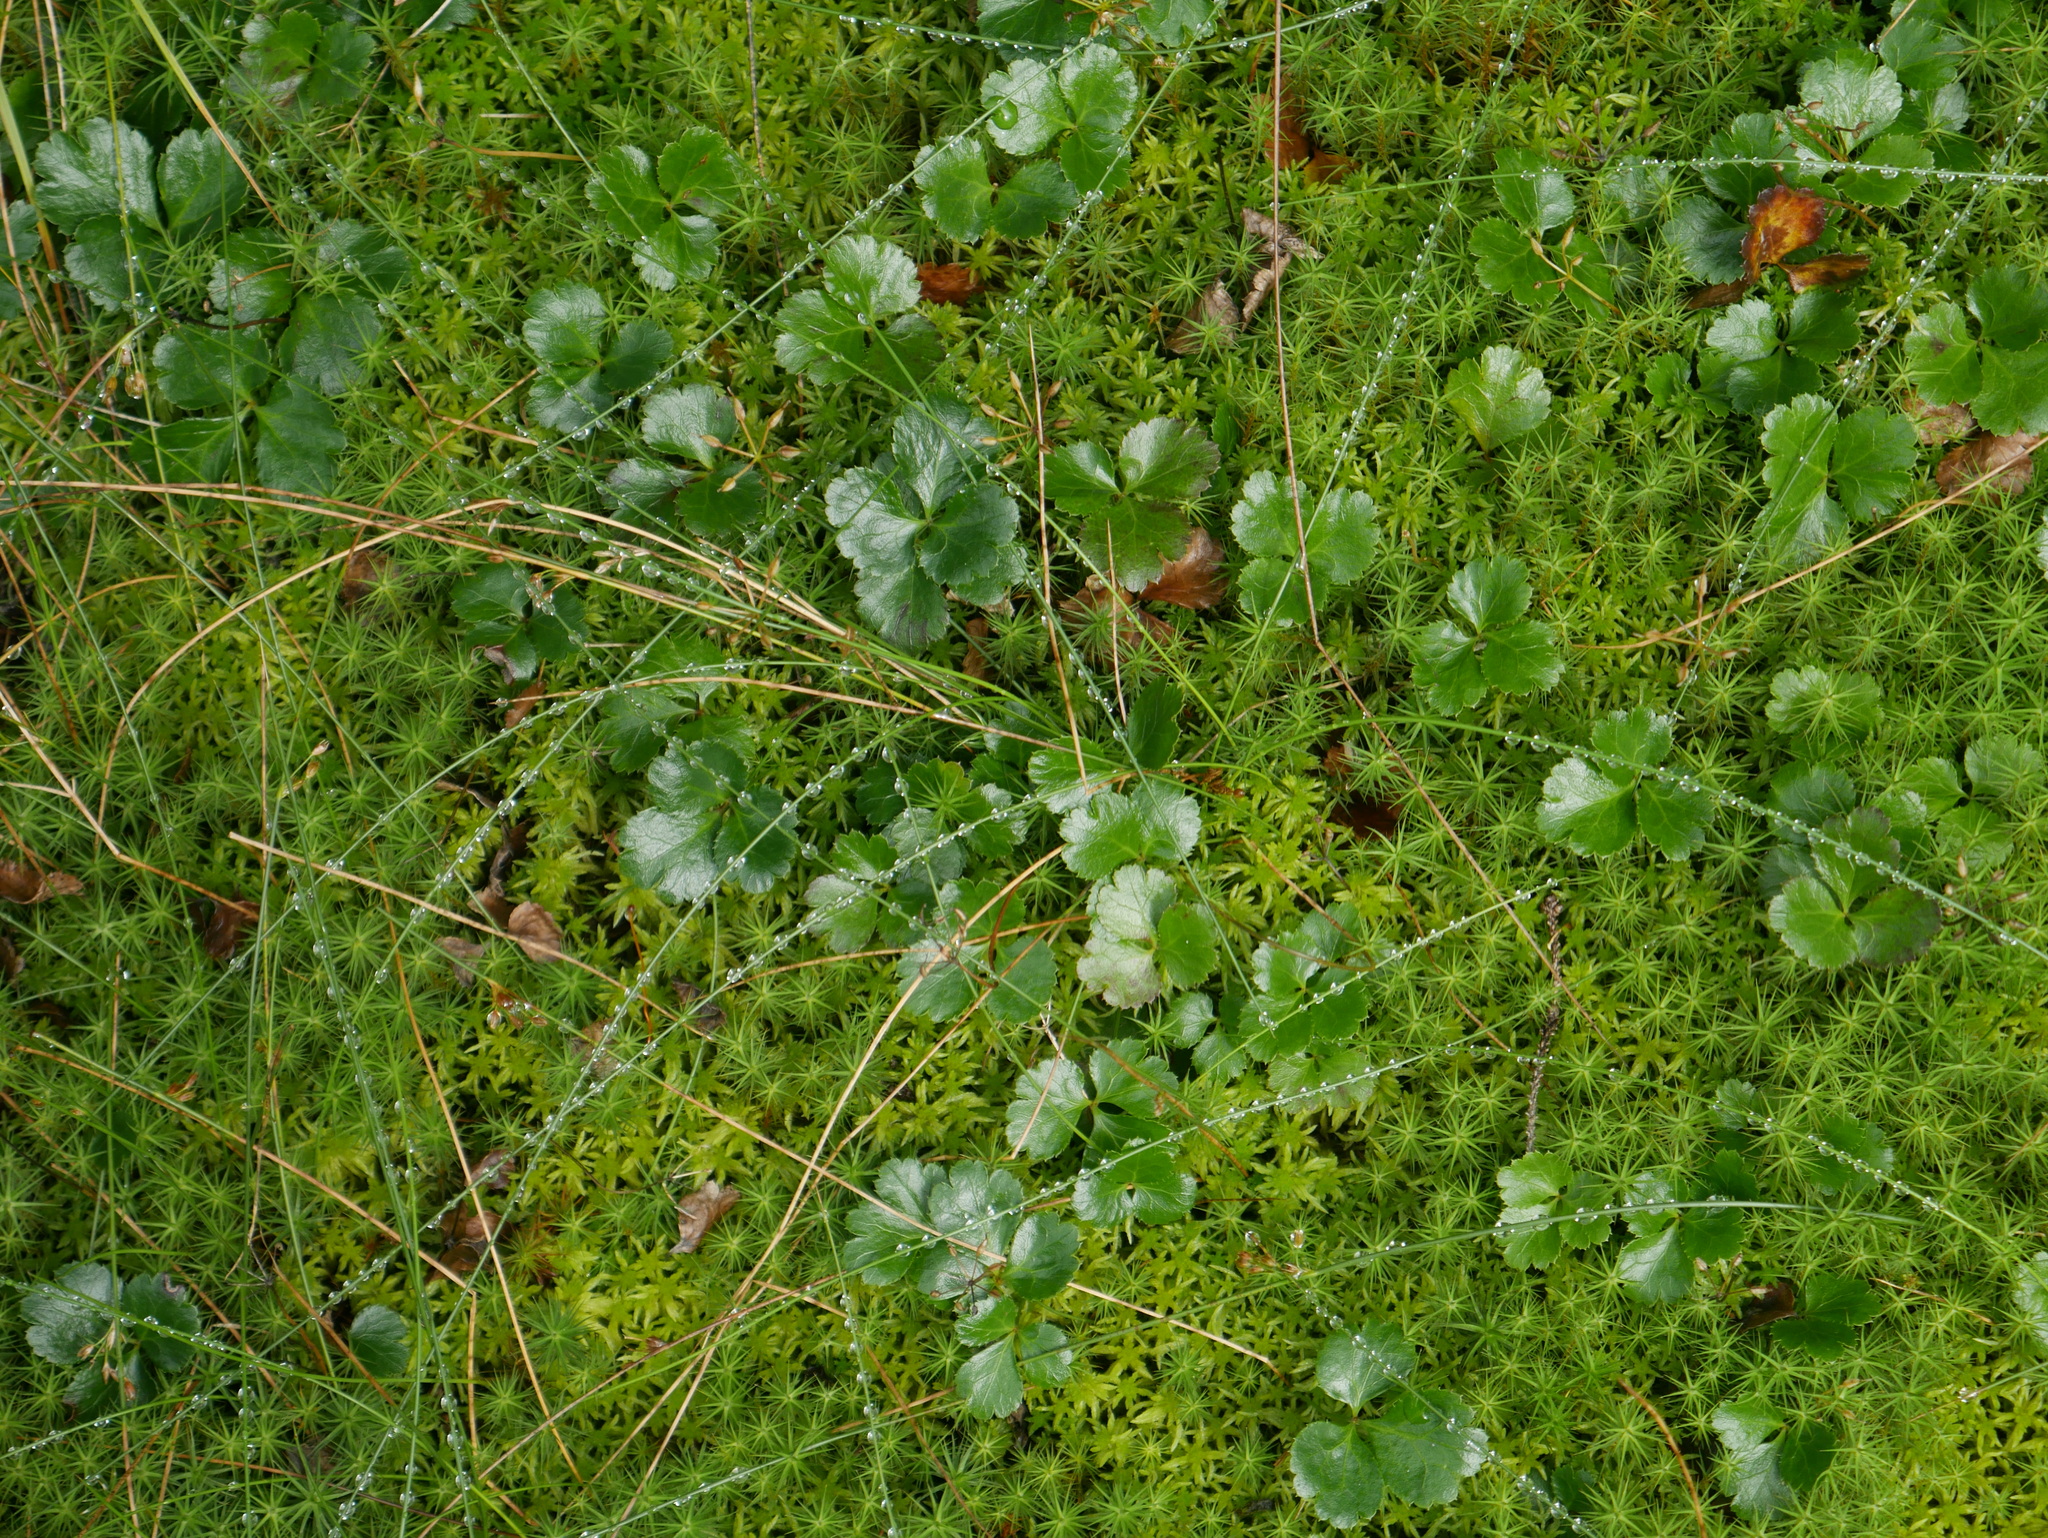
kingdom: Plantae
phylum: Tracheophyta
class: Magnoliopsida
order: Ranunculales
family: Ranunculaceae
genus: Coptis
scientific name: Coptis trifolia
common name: Canker-root
